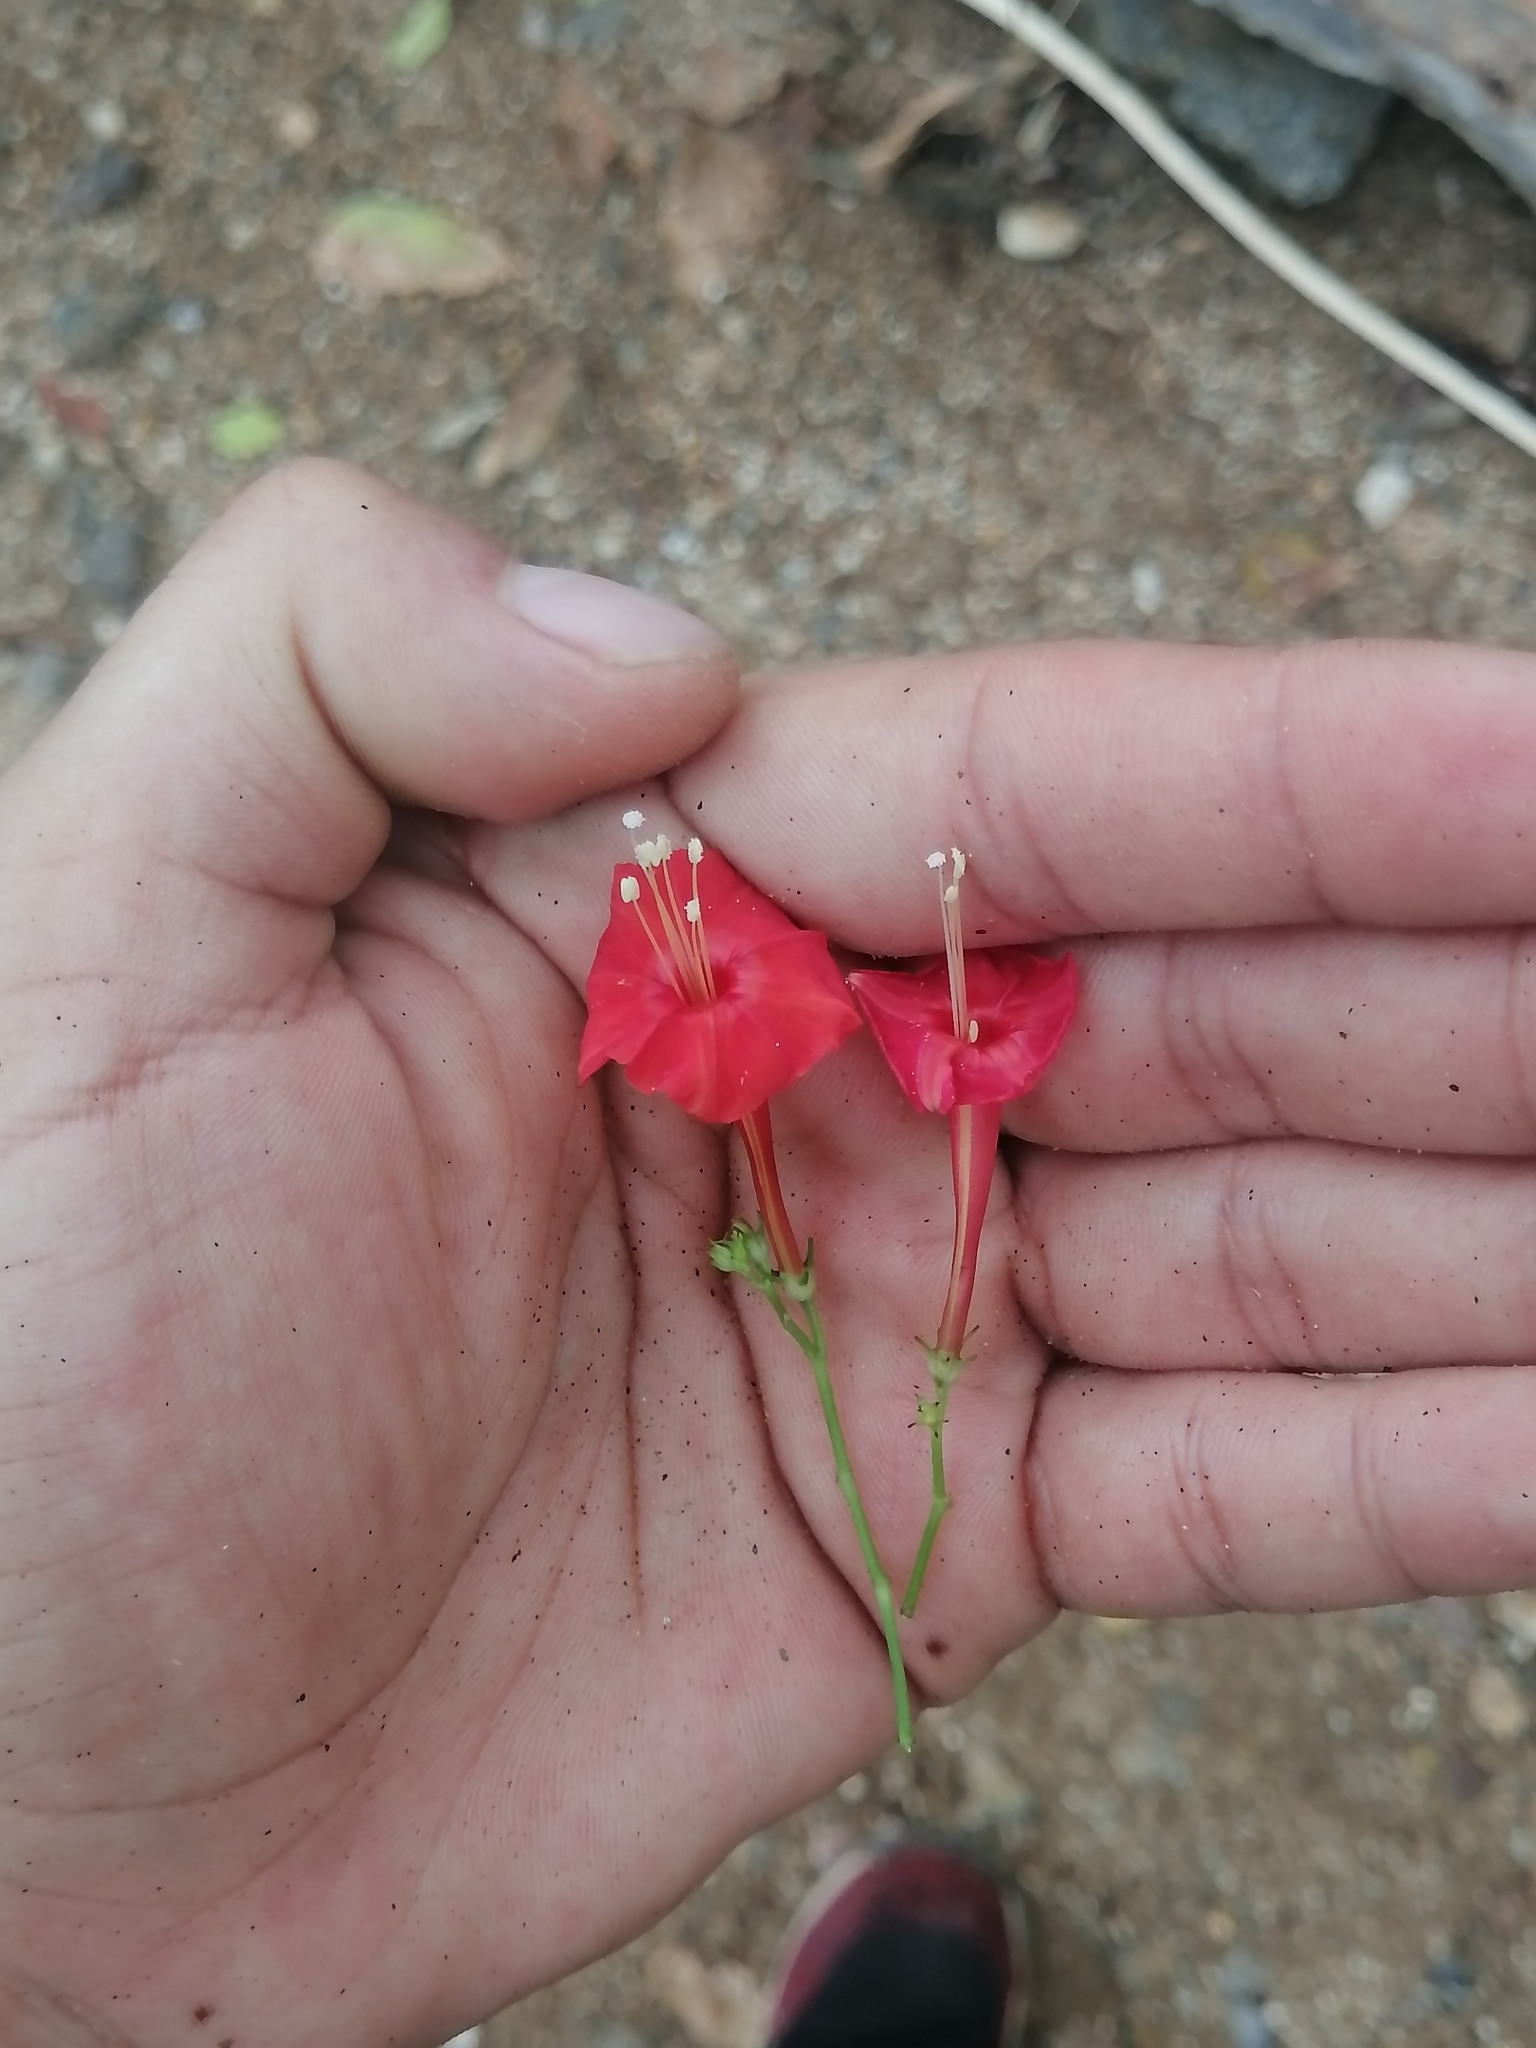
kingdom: Plantae
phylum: Tracheophyta
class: Magnoliopsida
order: Solanales
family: Convolvulaceae
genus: Ipomoea
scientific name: Ipomoea hederifolia
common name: Ivy-leaf morning-glory
